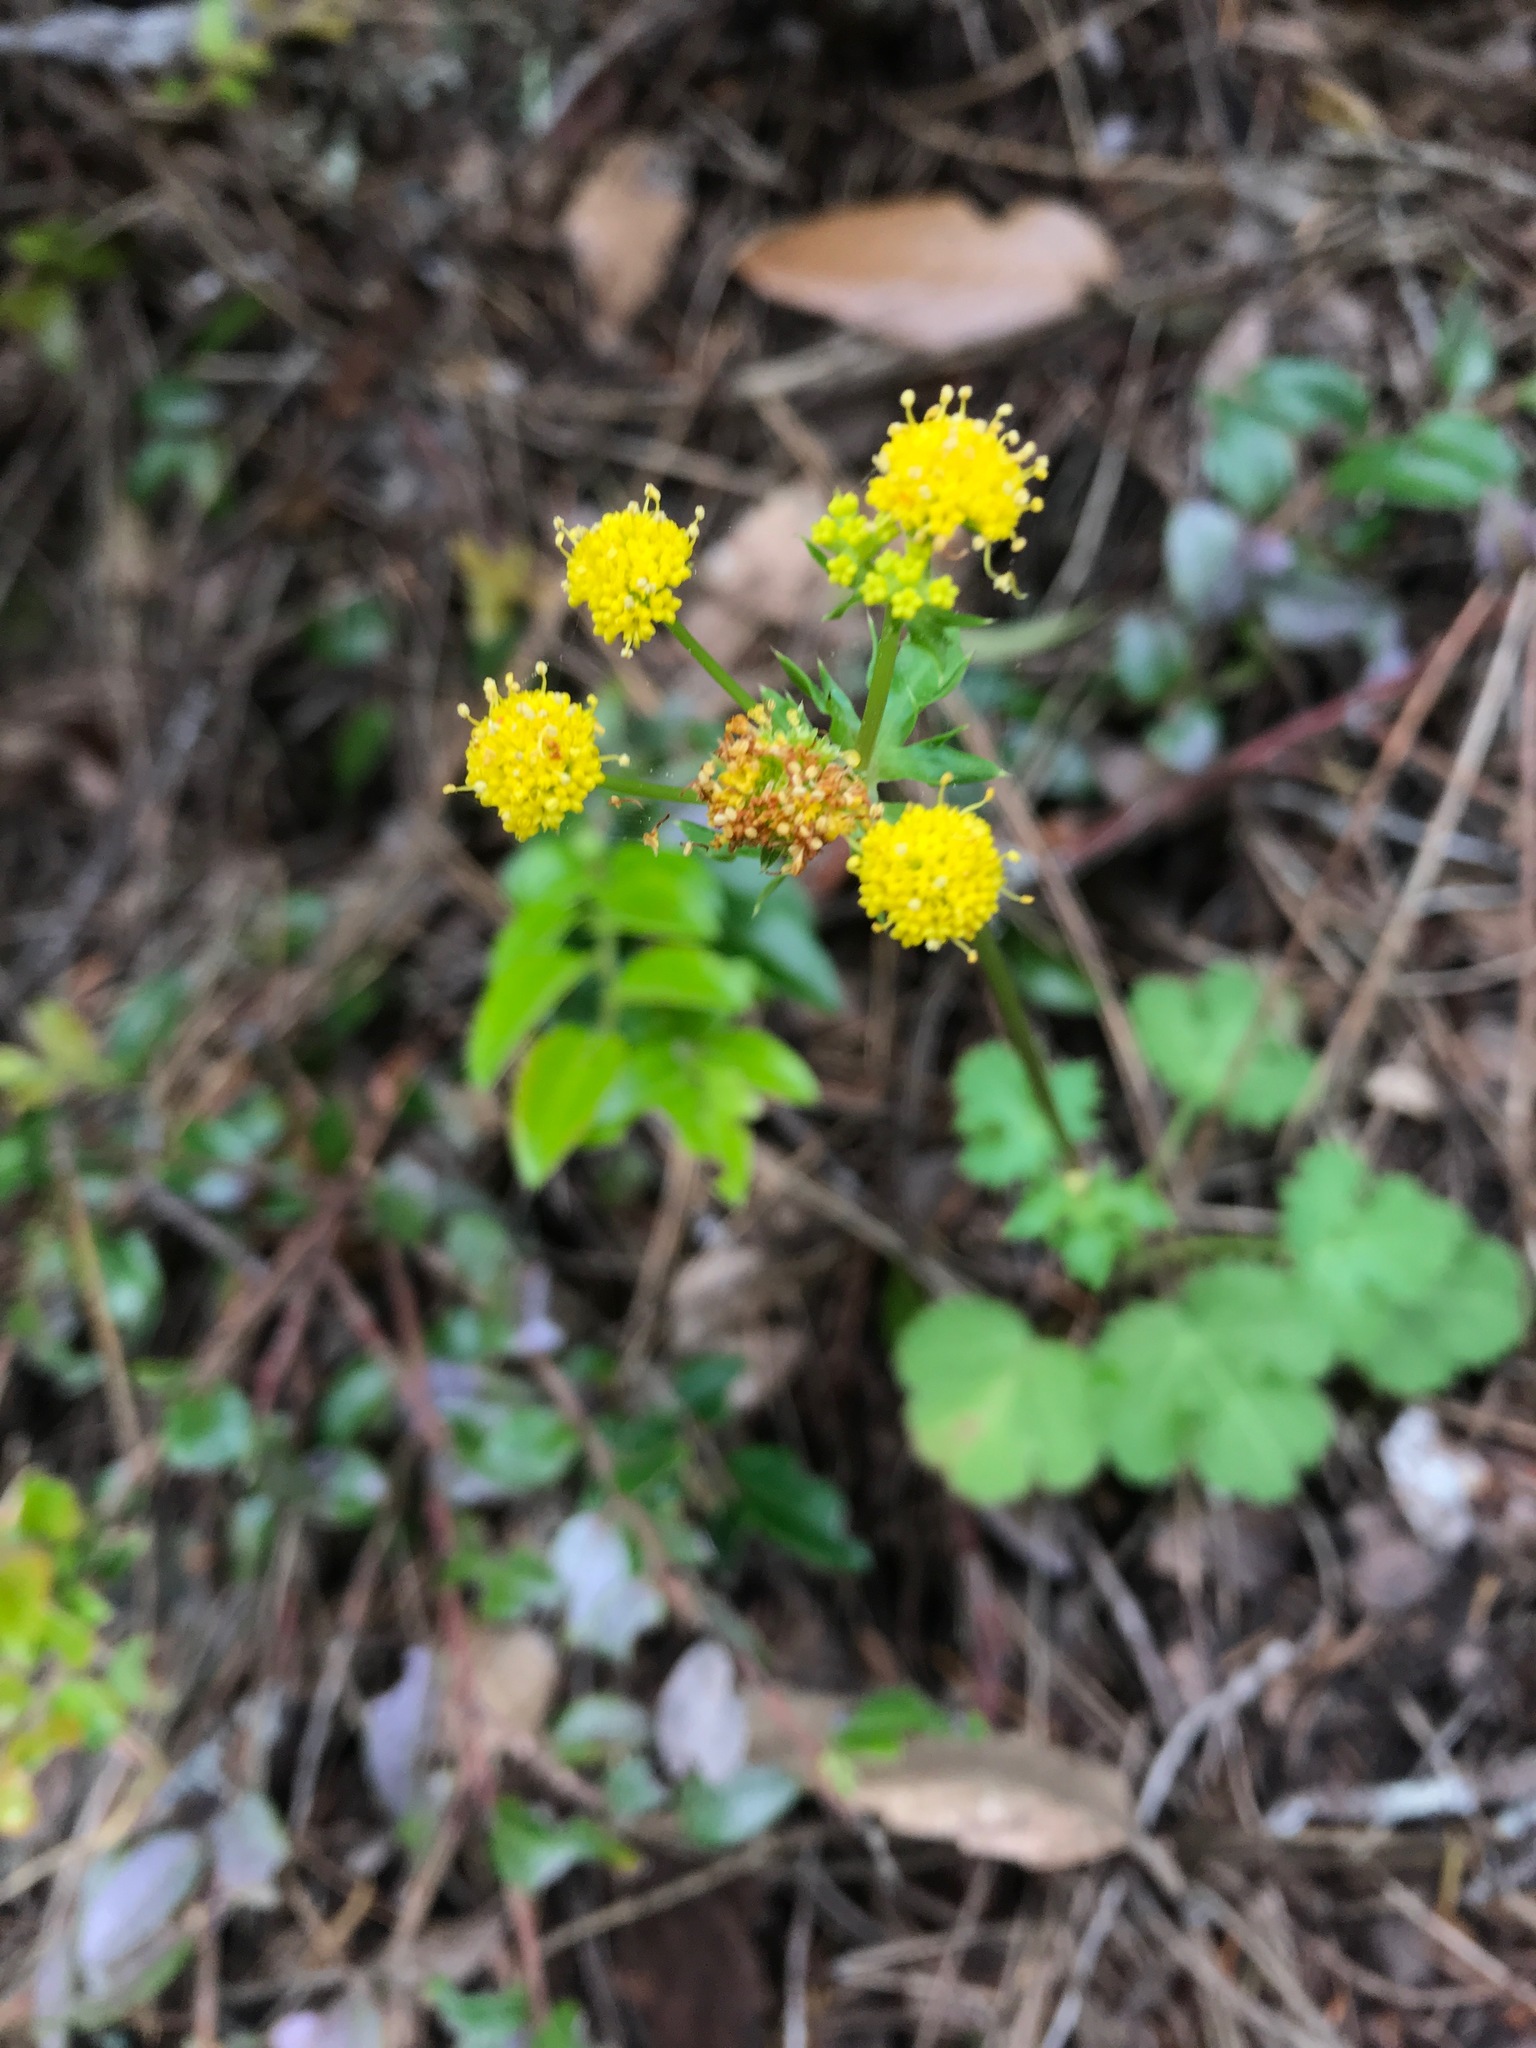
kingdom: Plantae
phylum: Tracheophyta
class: Magnoliopsida
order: Apiales
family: Apiaceae
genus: Sanicula
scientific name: Sanicula crassicaulis
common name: Western snakeroot
